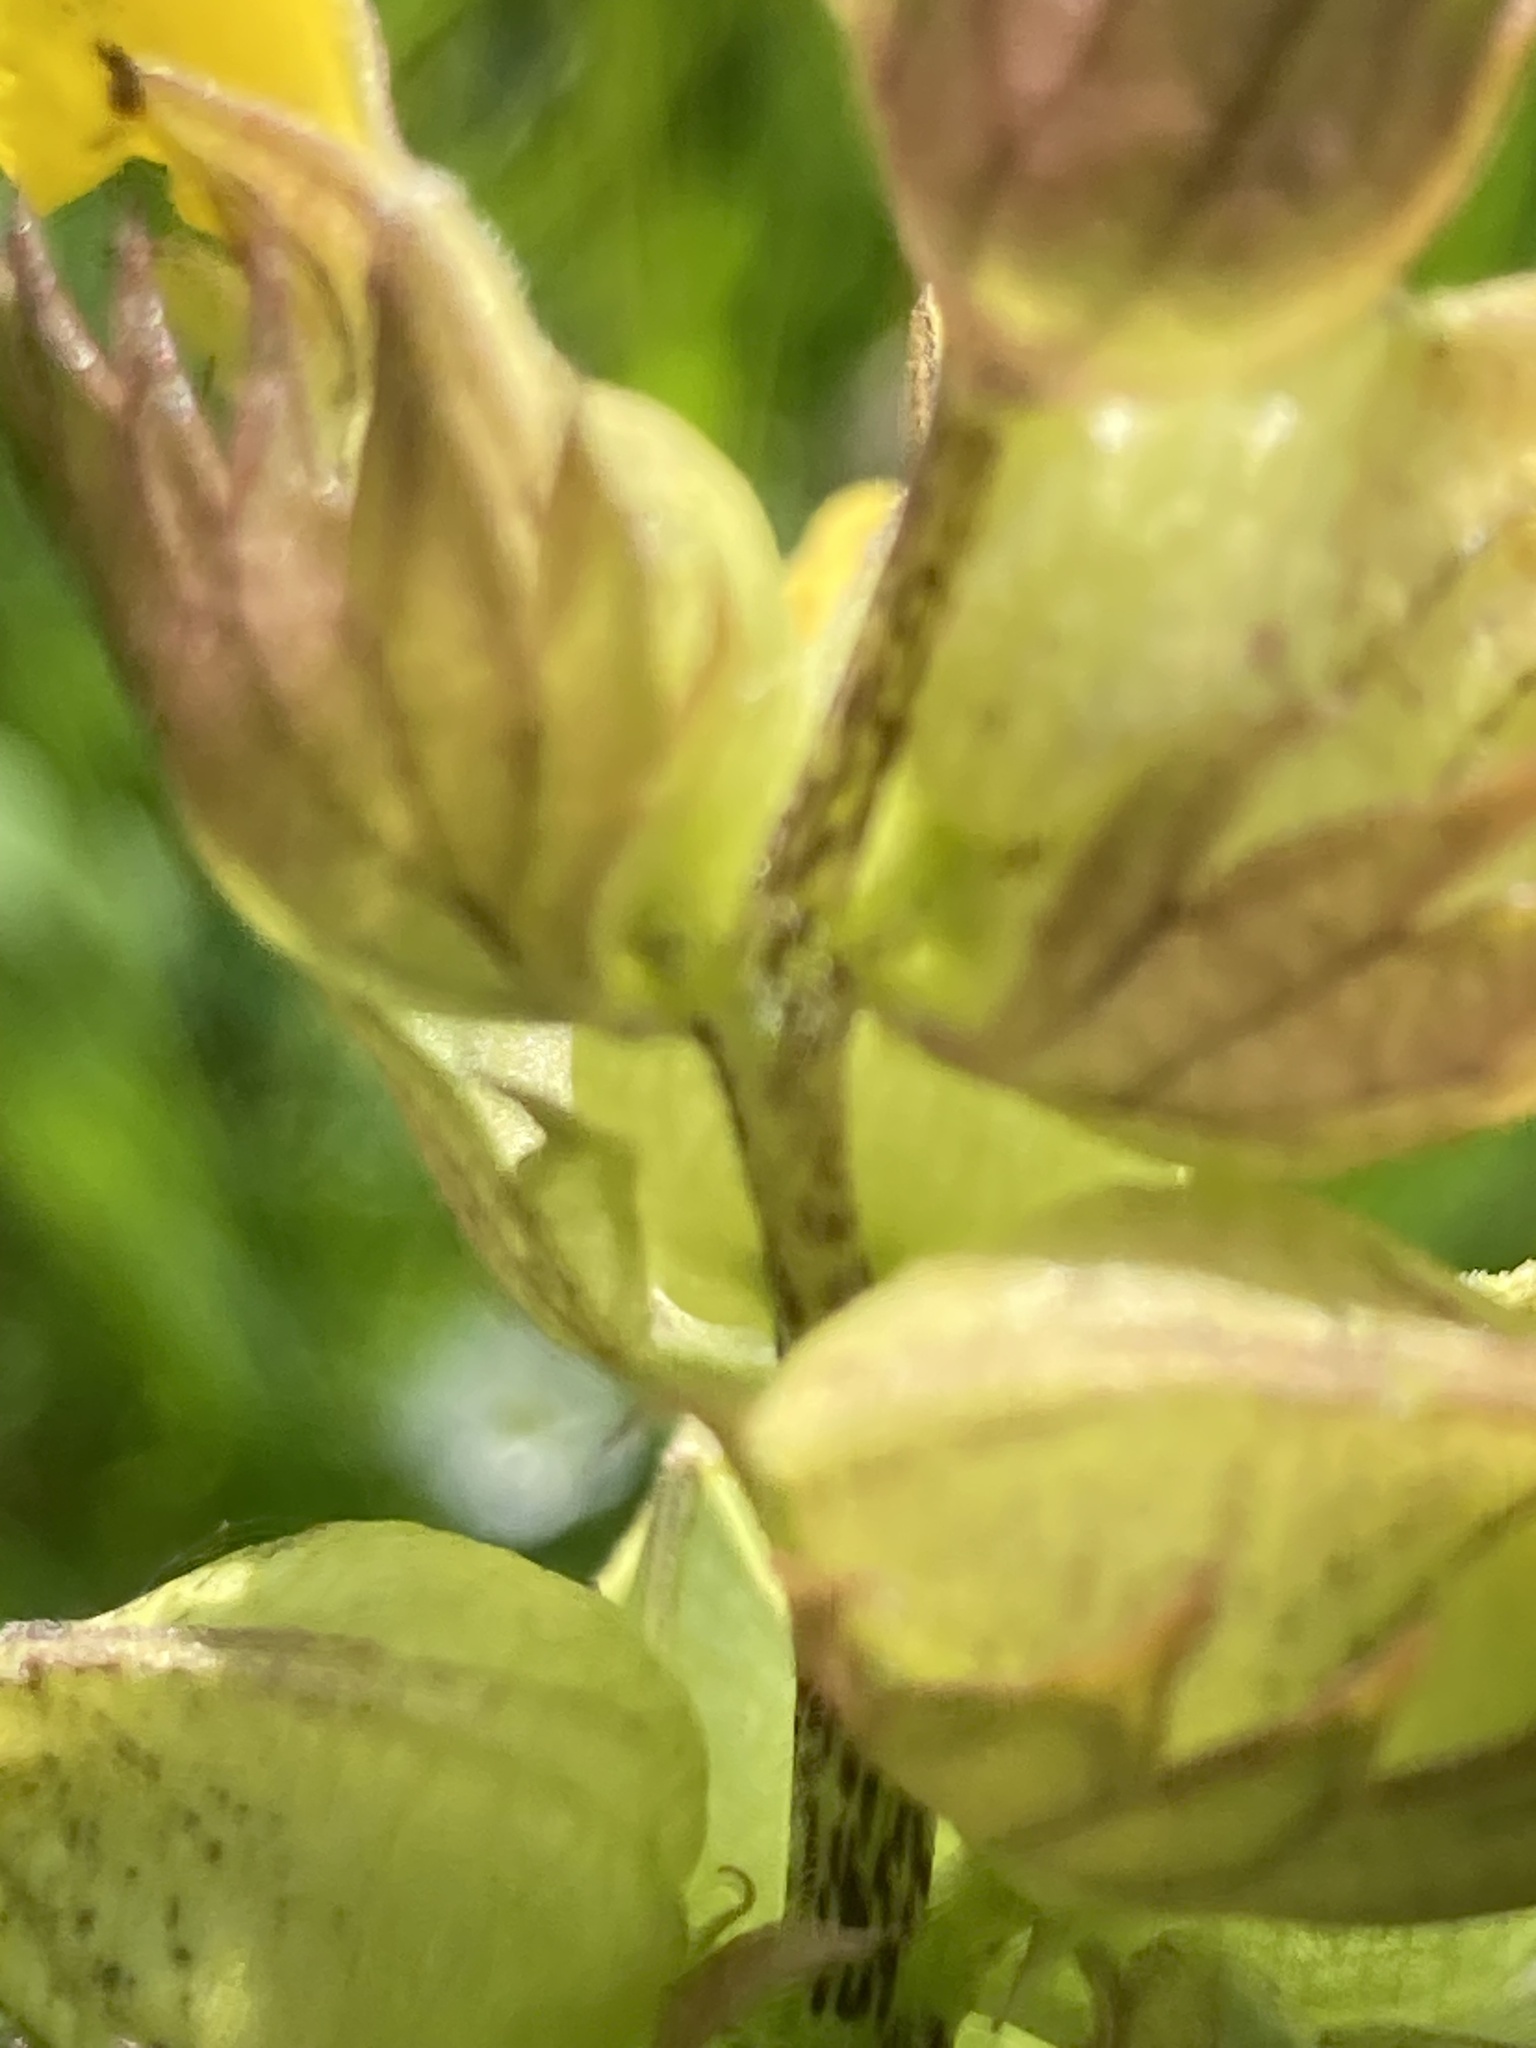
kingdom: Plantae
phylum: Tracheophyta
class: Magnoliopsida
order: Lamiales
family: Orobanchaceae
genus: Rhinanthus
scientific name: Rhinanthus minor
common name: Yellow-rattle
